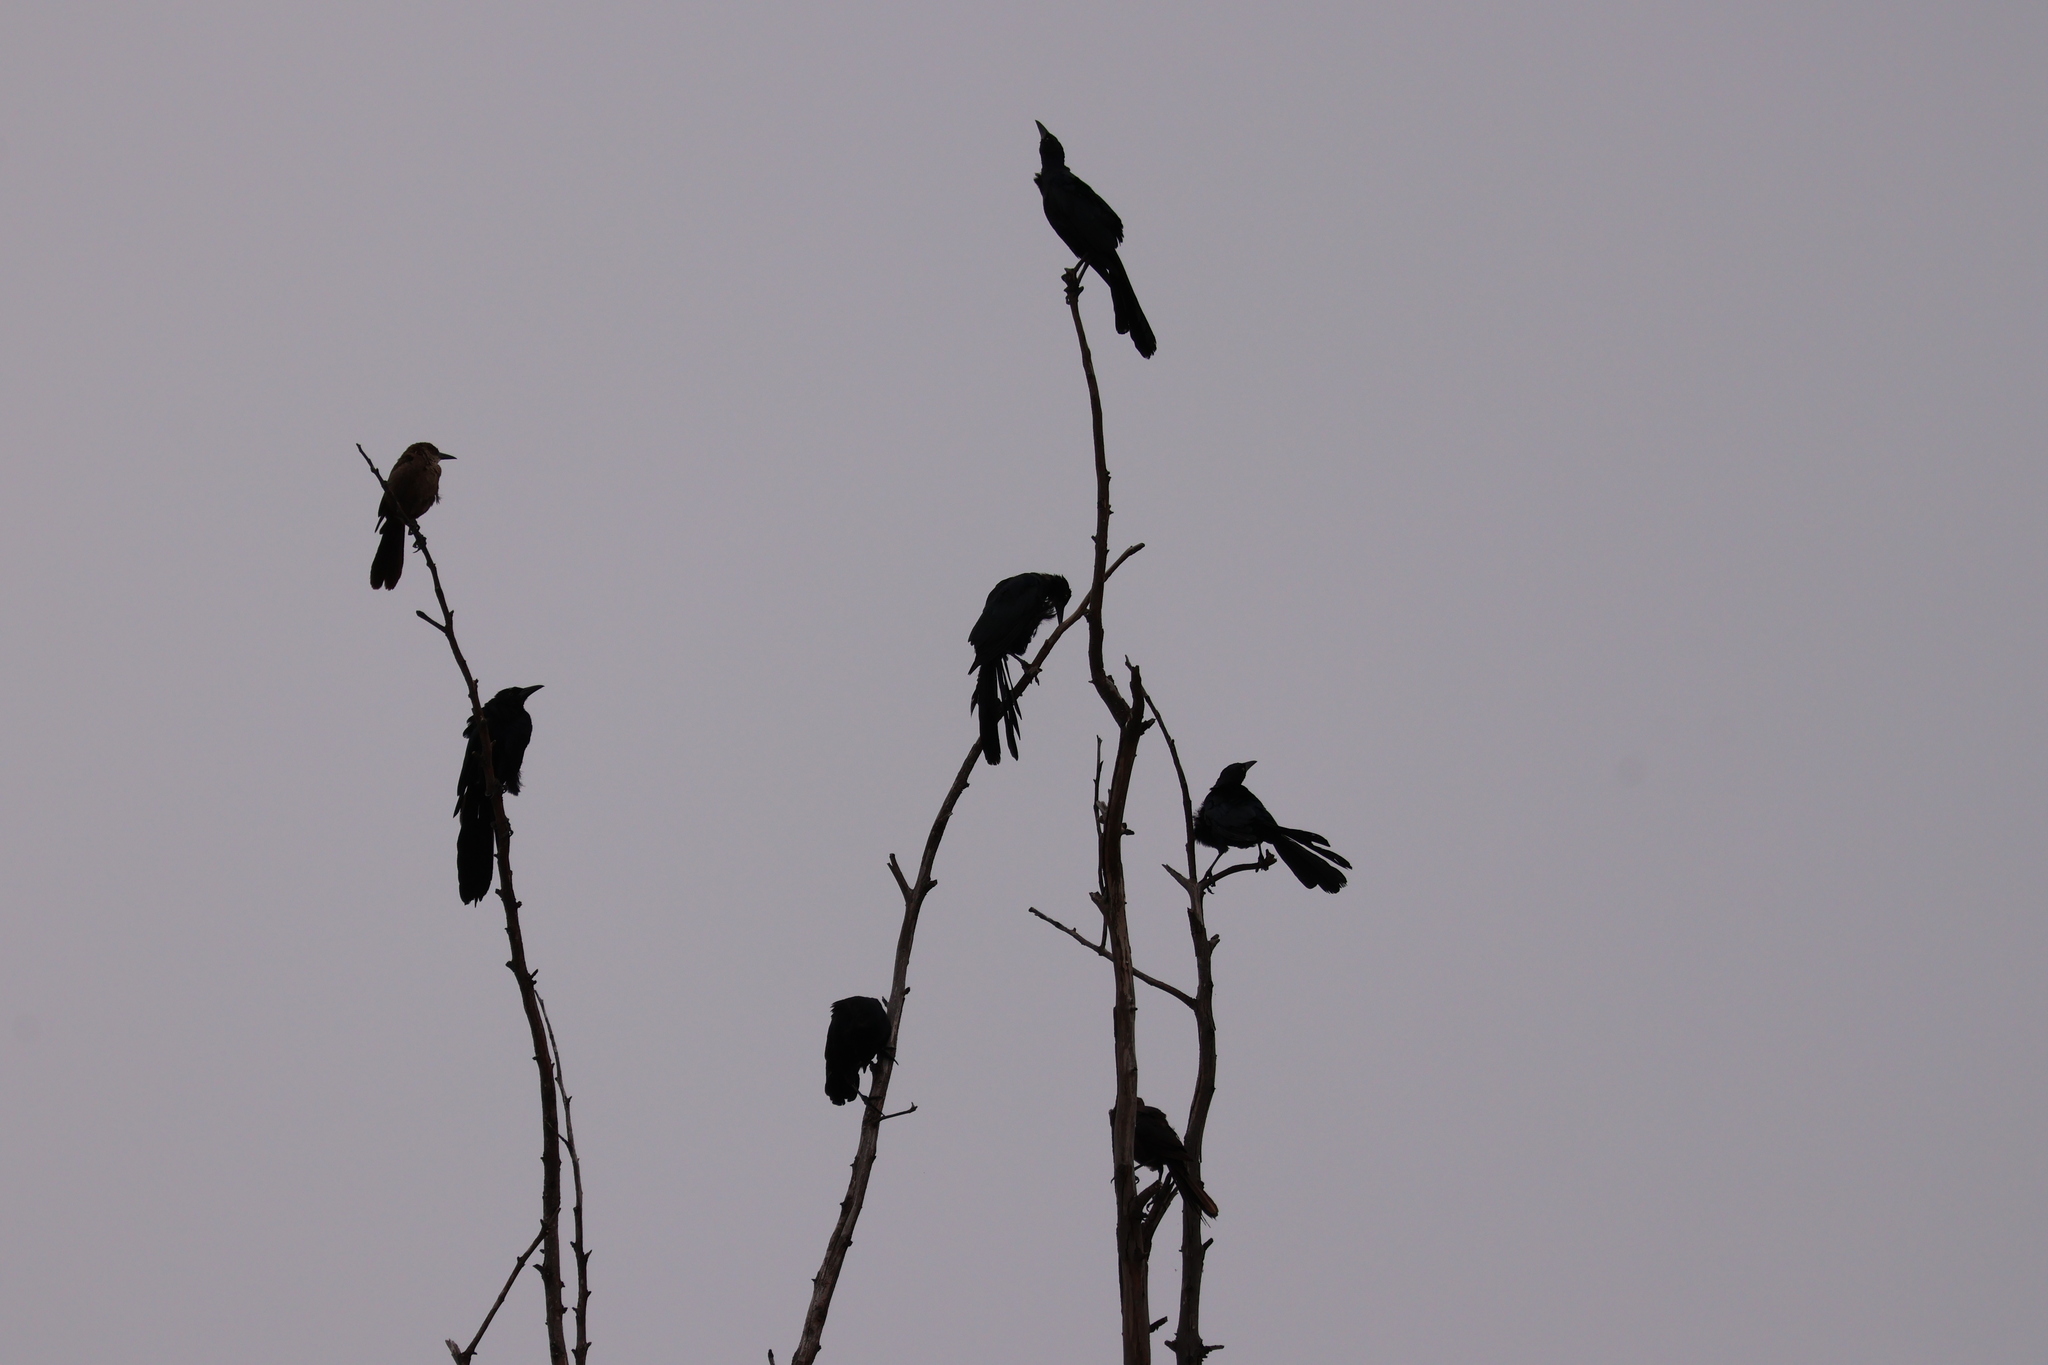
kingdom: Animalia
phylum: Chordata
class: Aves
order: Passeriformes
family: Icteridae
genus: Quiscalus
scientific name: Quiscalus mexicanus
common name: Great-tailed grackle
